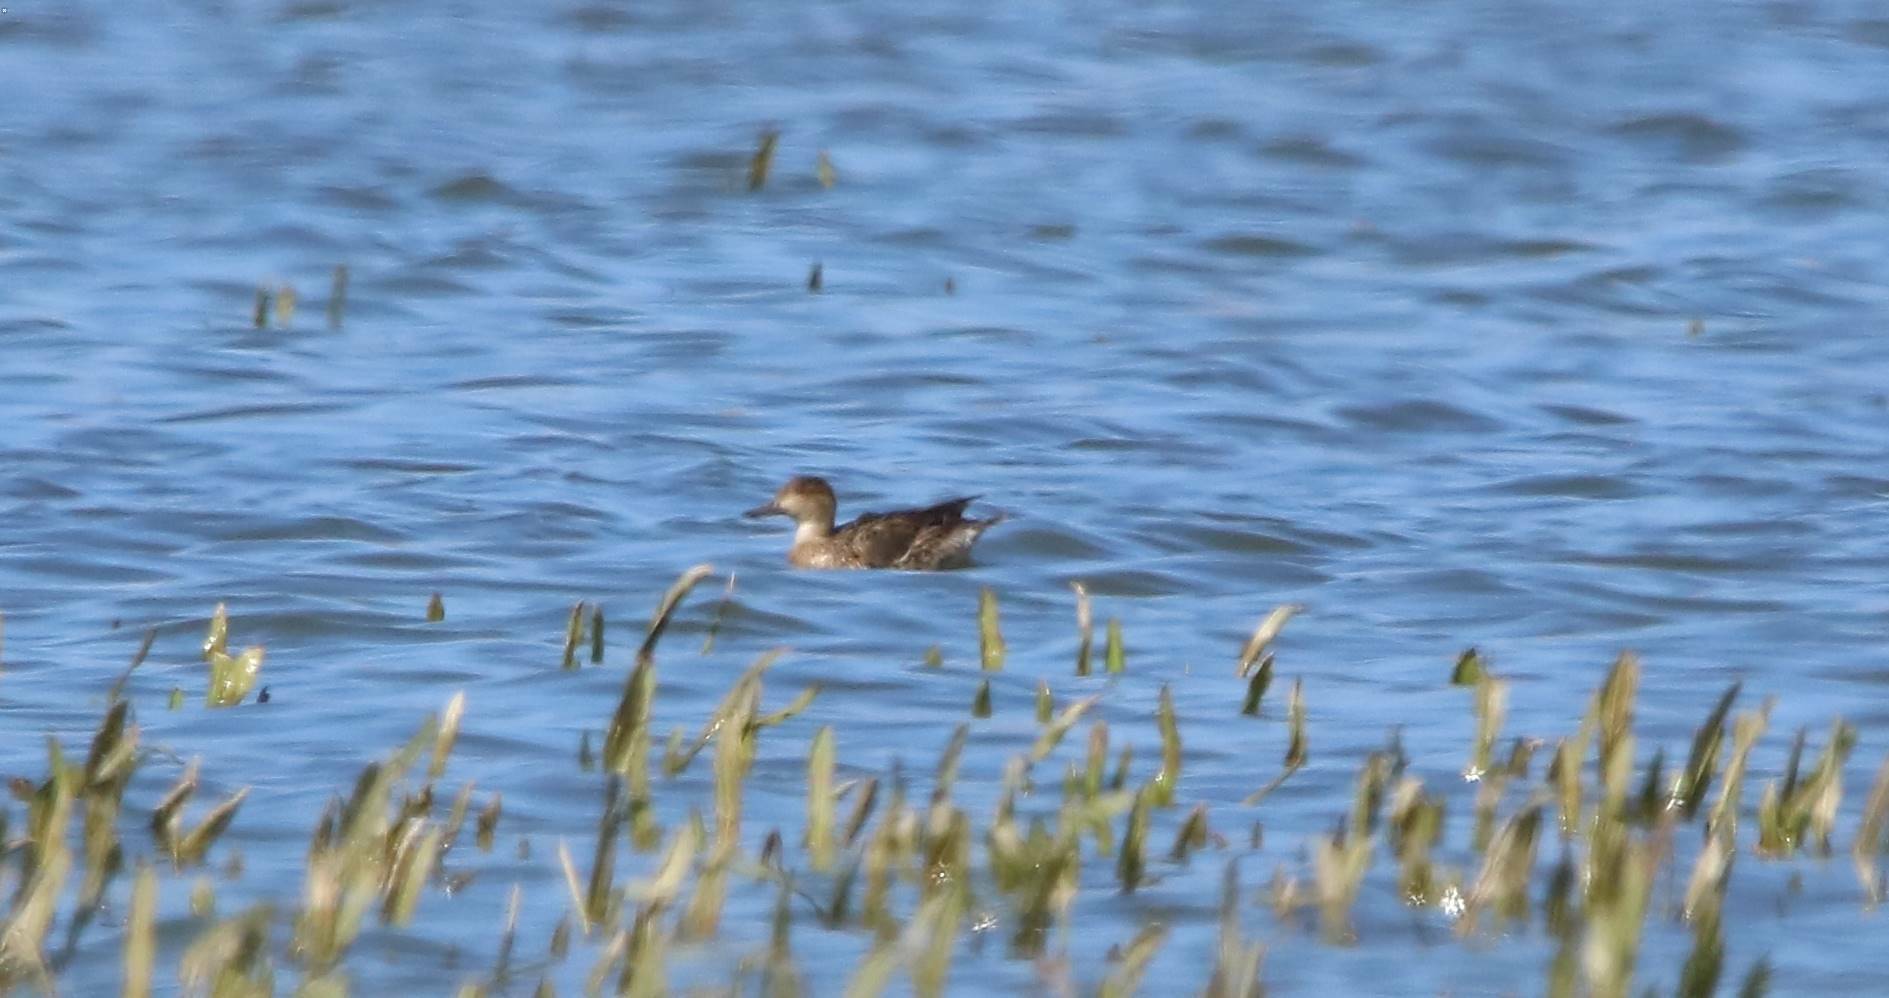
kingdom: Animalia
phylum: Chordata
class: Aves
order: Anseriformes
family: Anatidae
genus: Anas
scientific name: Anas crecca
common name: Eurasian teal
